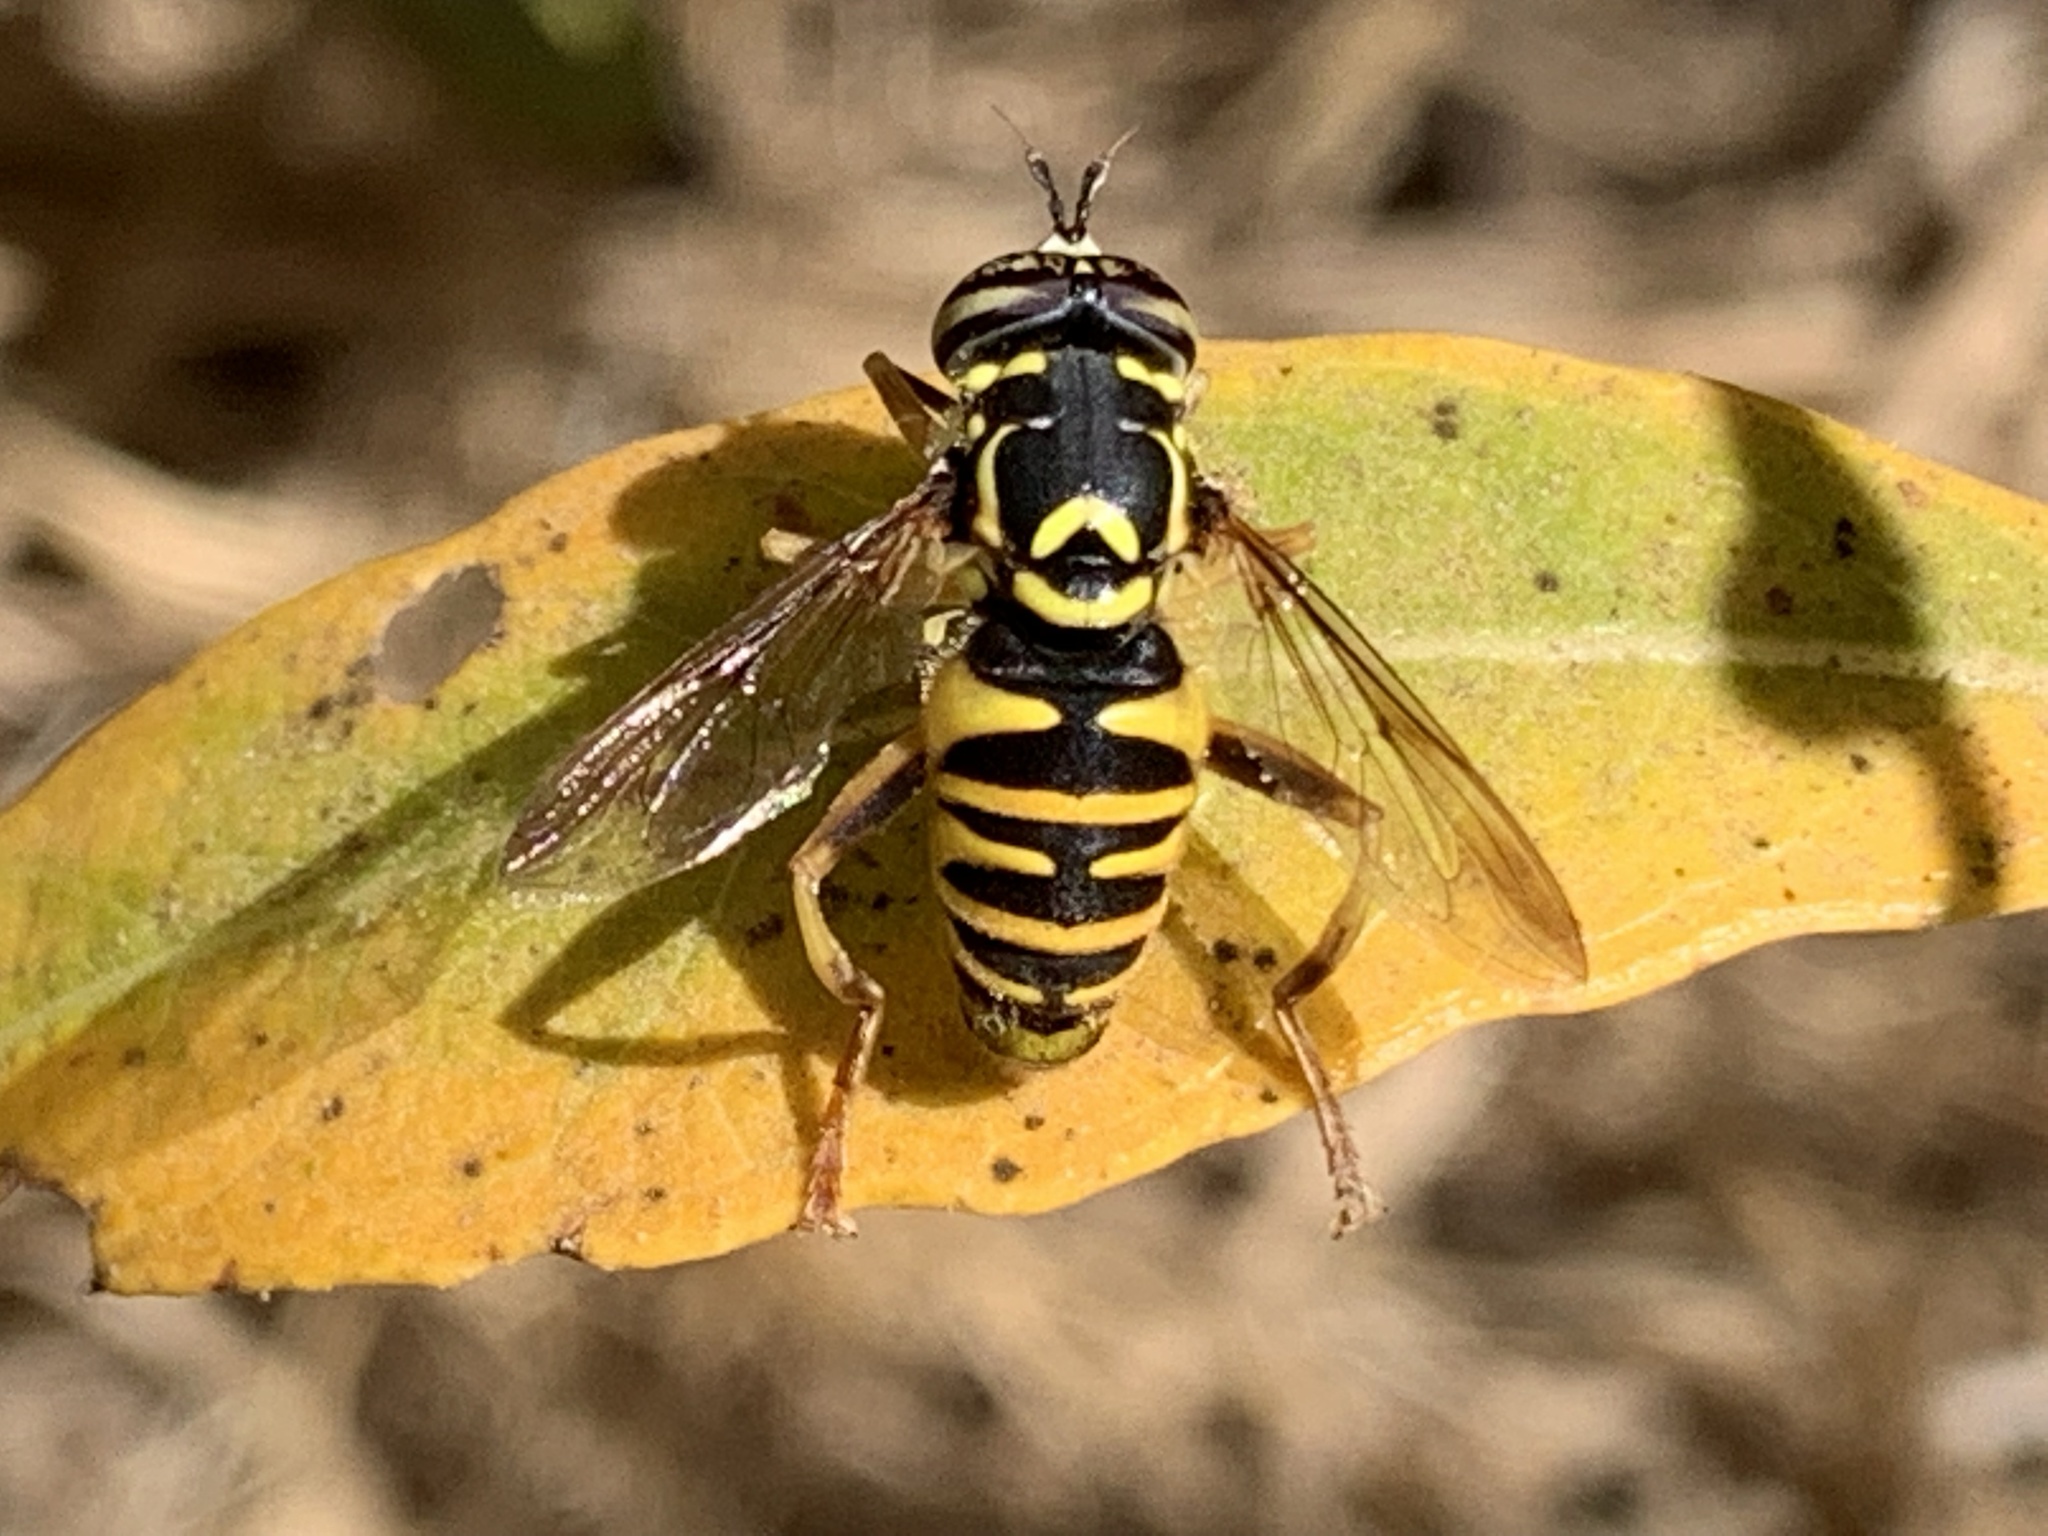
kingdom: Animalia
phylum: Arthropoda
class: Insecta
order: Diptera
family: Syrphidae
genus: Spilomyia
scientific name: Spilomyia interrupta
